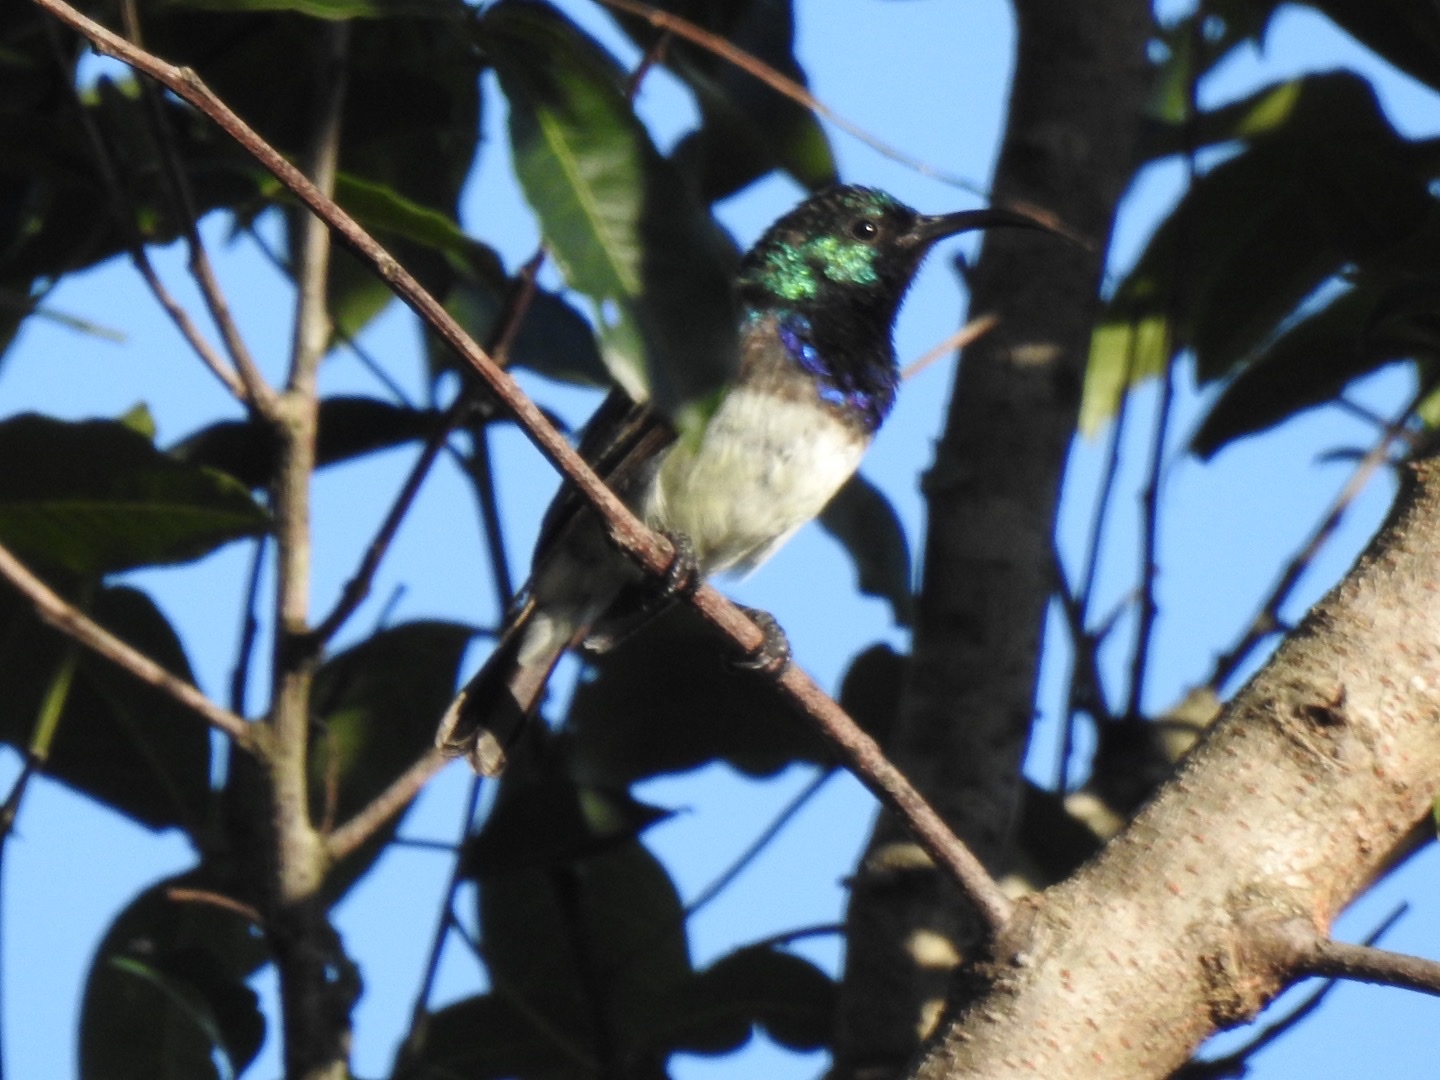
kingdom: Animalia
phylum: Chordata
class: Aves
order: Passeriformes
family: Nectariniidae
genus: Cinnyris
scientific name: Cinnyris talatala
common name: White-bellied sunbird
